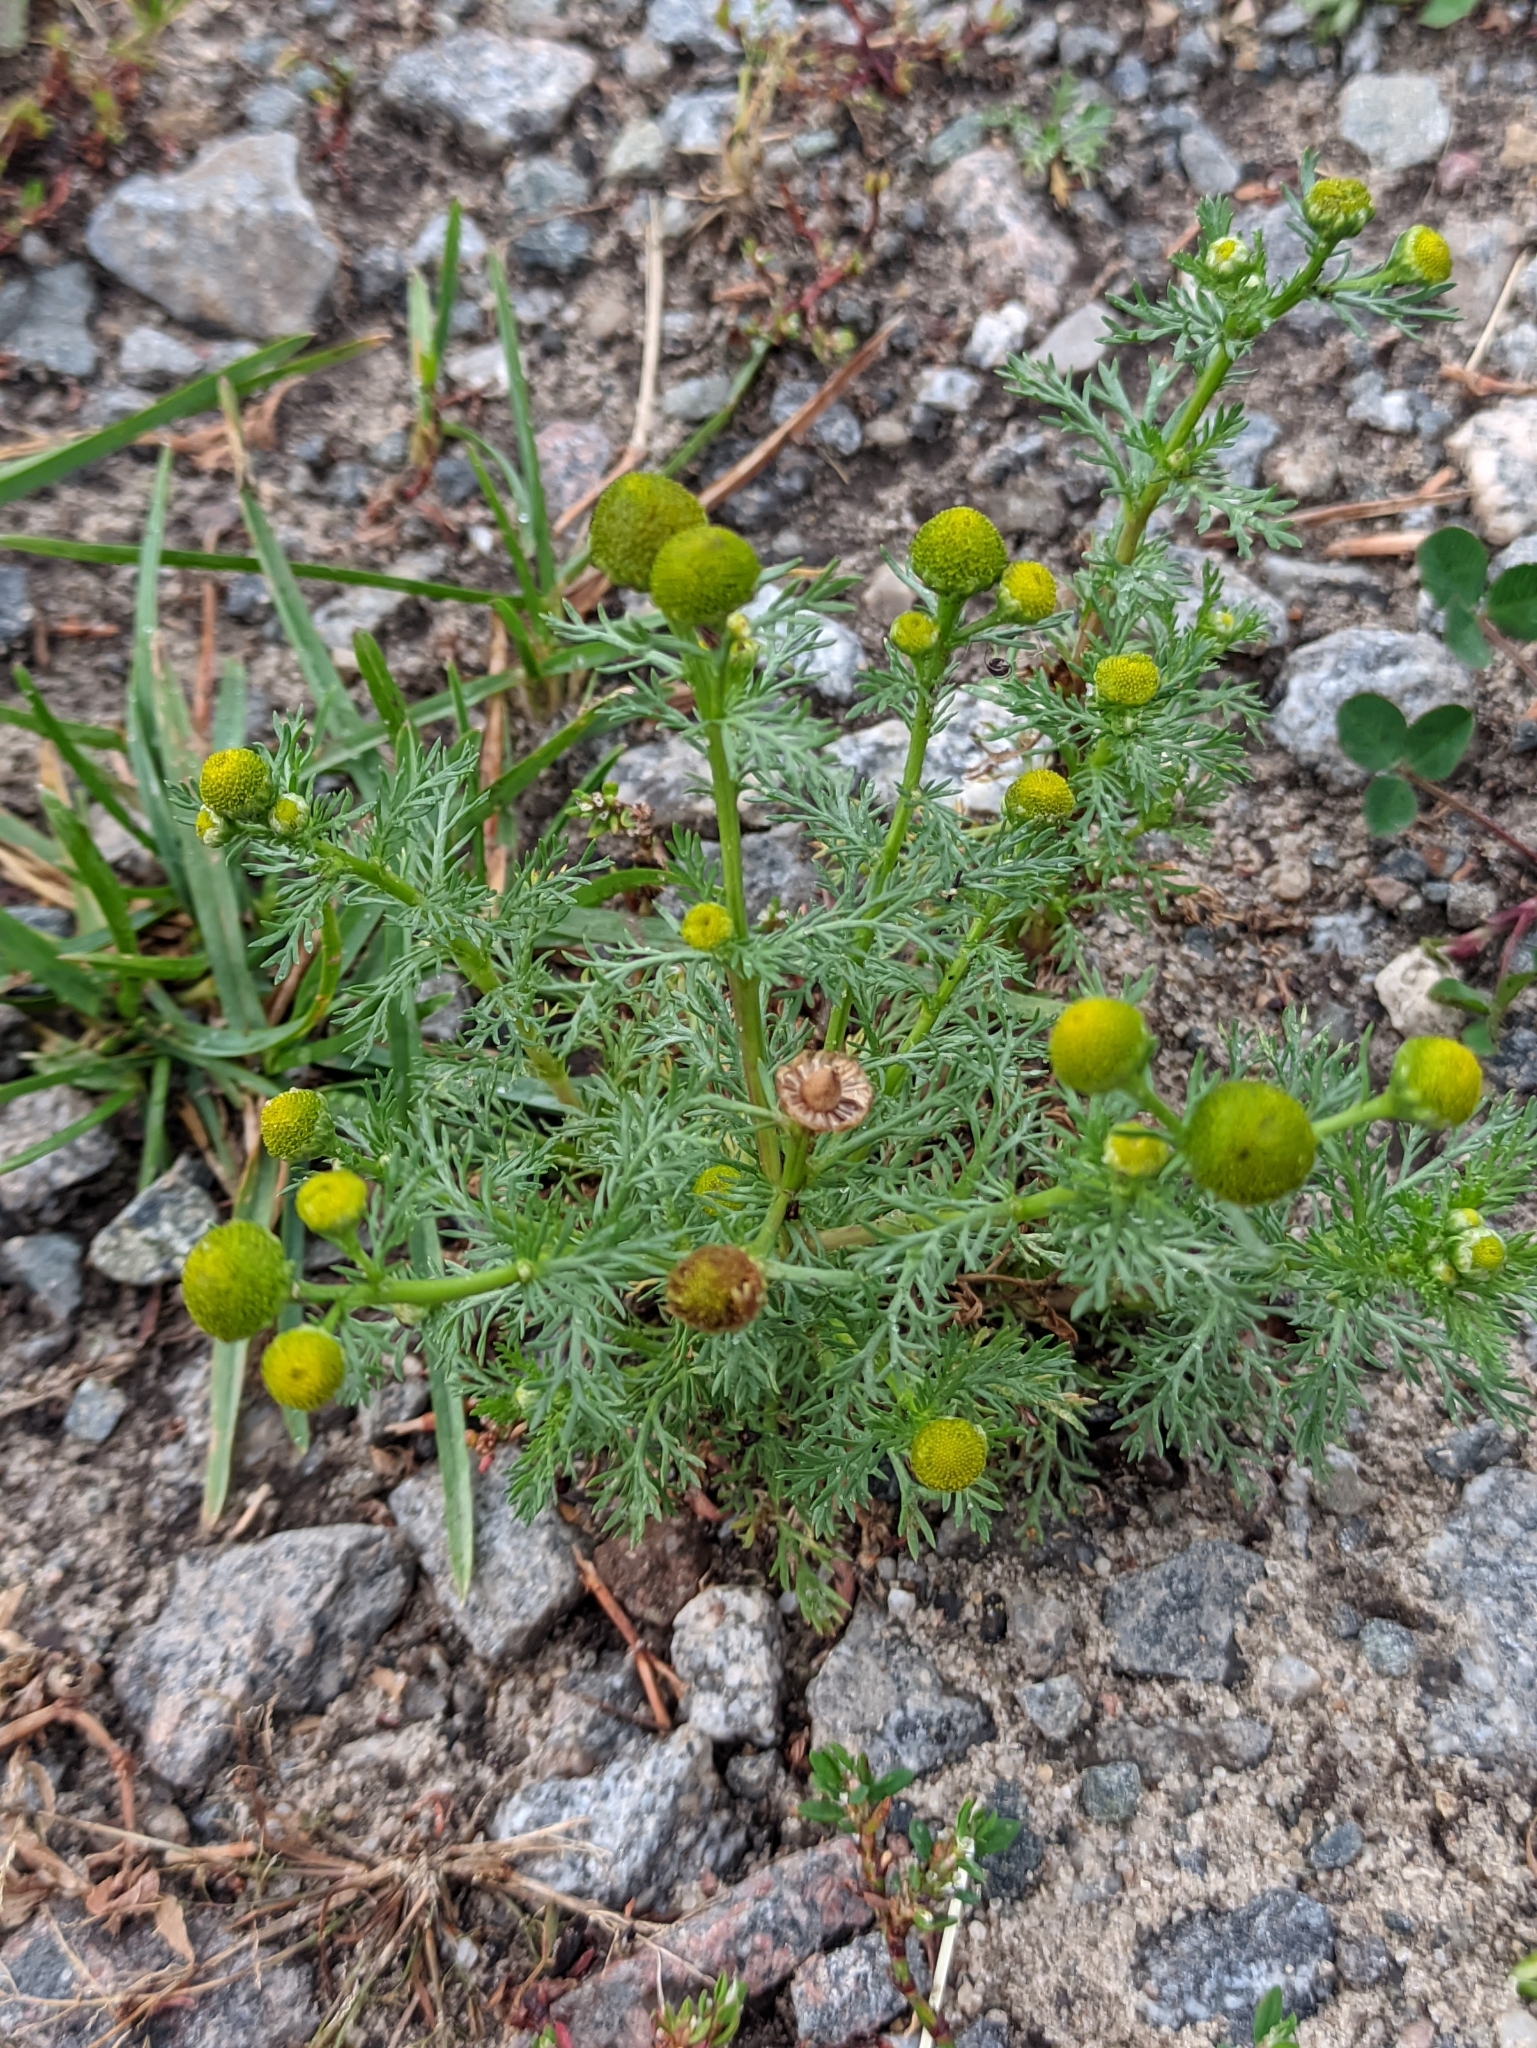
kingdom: Plantae
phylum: Tracheophyta
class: Magnoliopsida
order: Asterales
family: Asteraceae
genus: Matricaria
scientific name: Matricaria discoidea
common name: Disc mayweed
